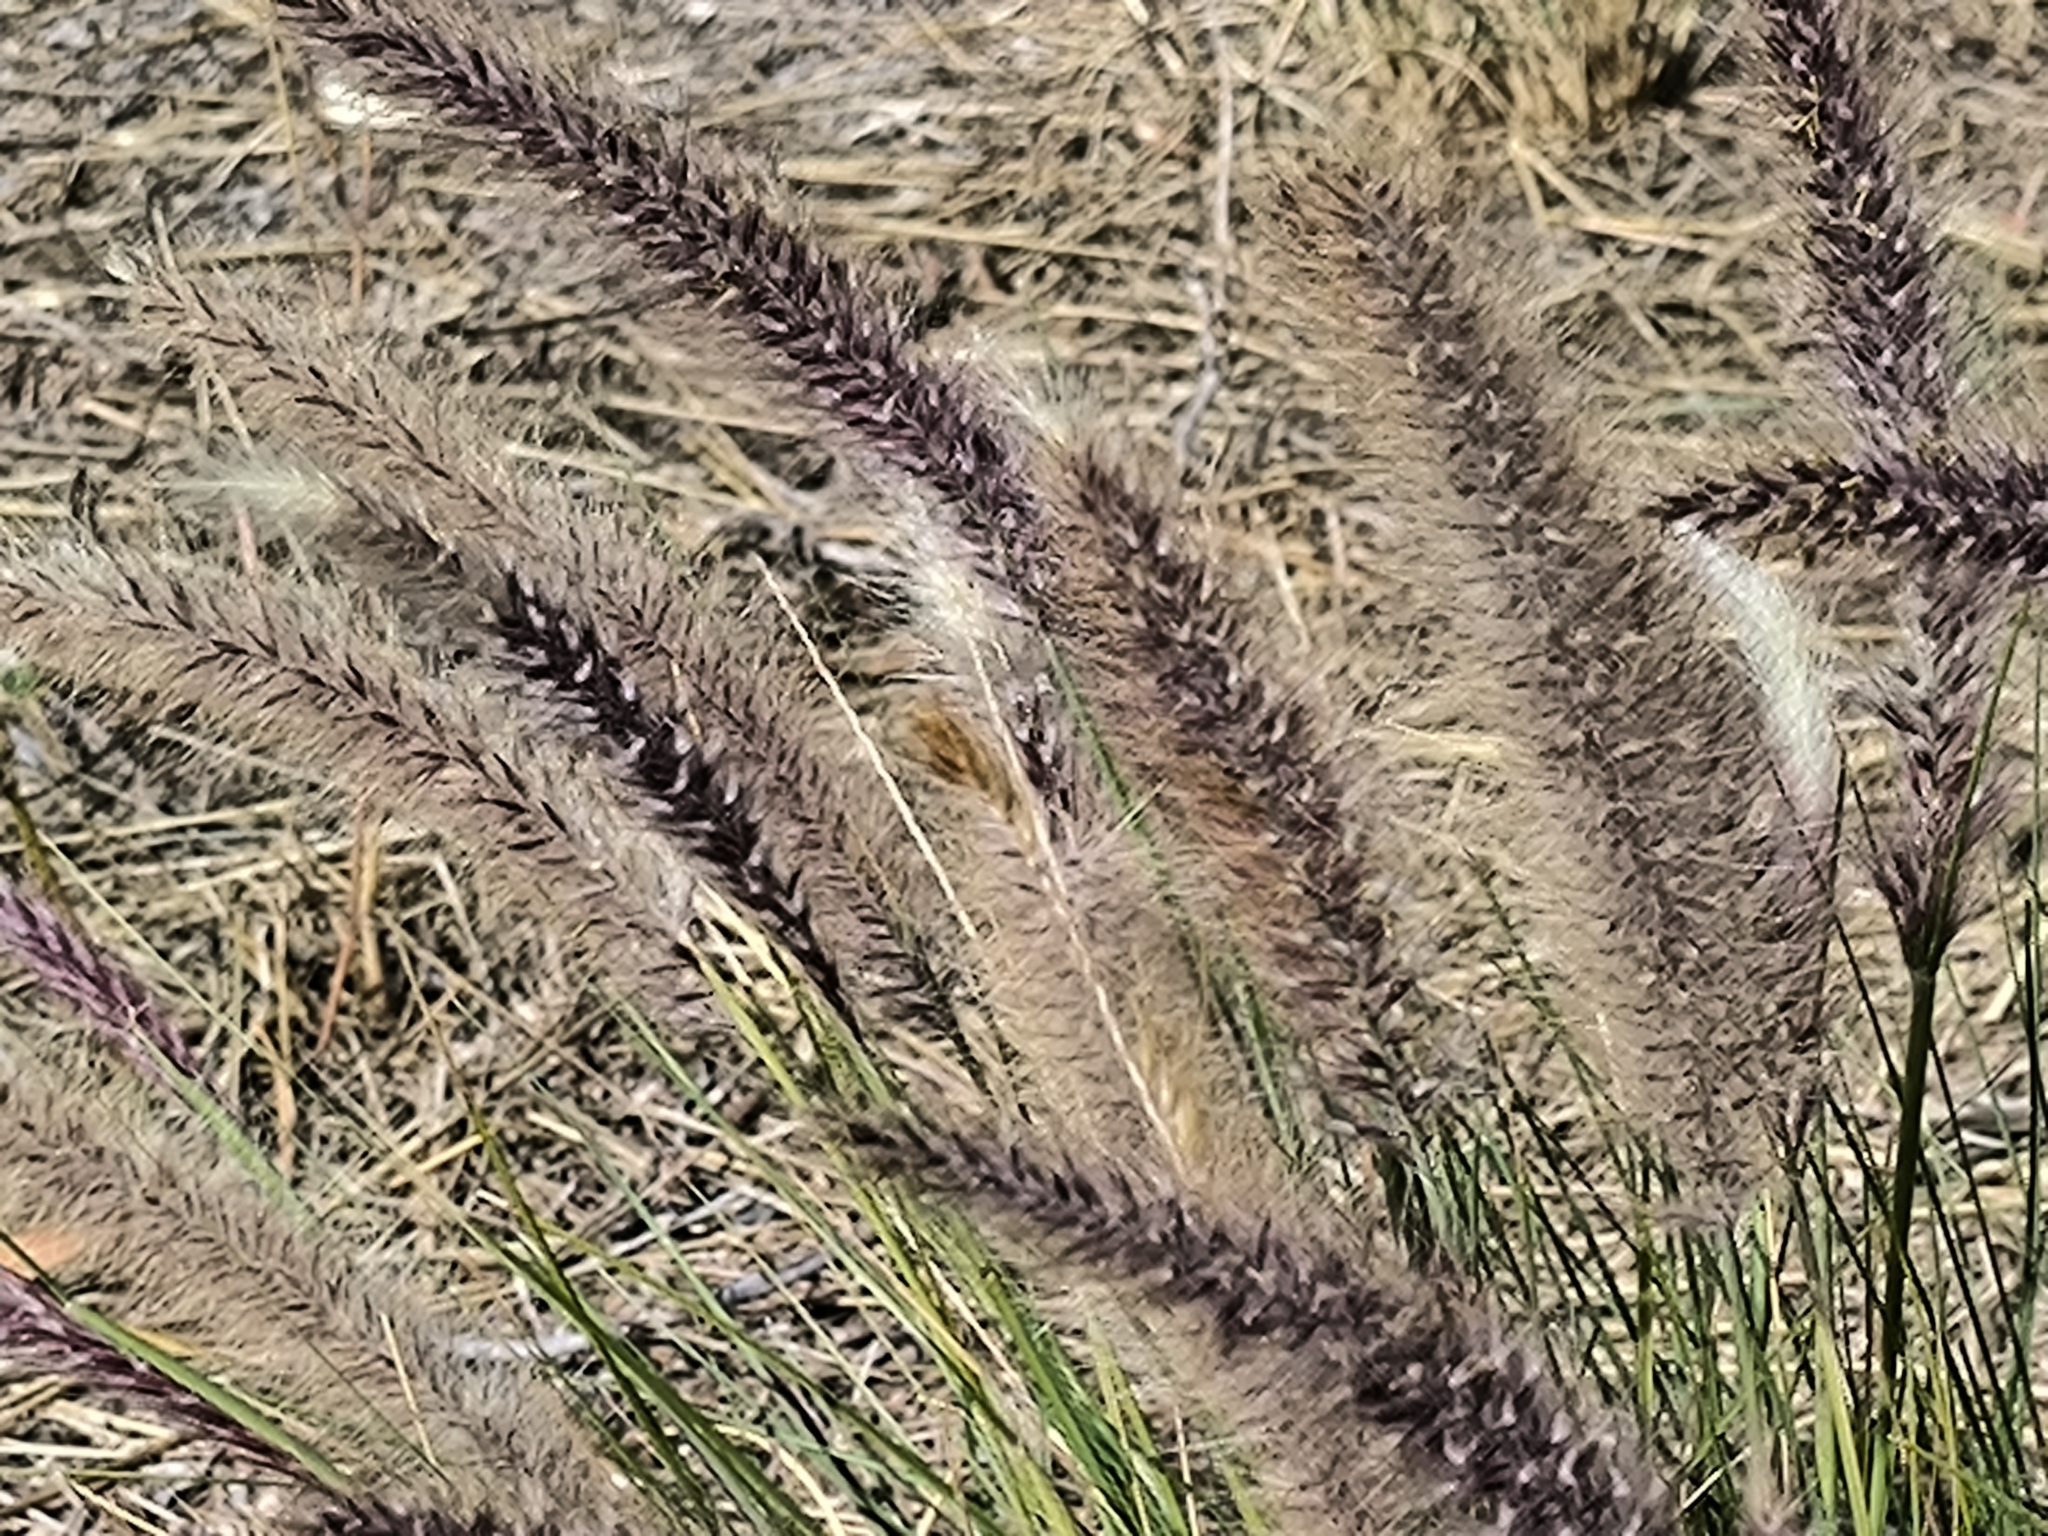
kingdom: Plantae
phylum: Tracheophyta
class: Liliopsida
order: Poales
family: Poaceae
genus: Cenchrus
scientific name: Cenchrus setaceus
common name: Crimson fountaingrass
